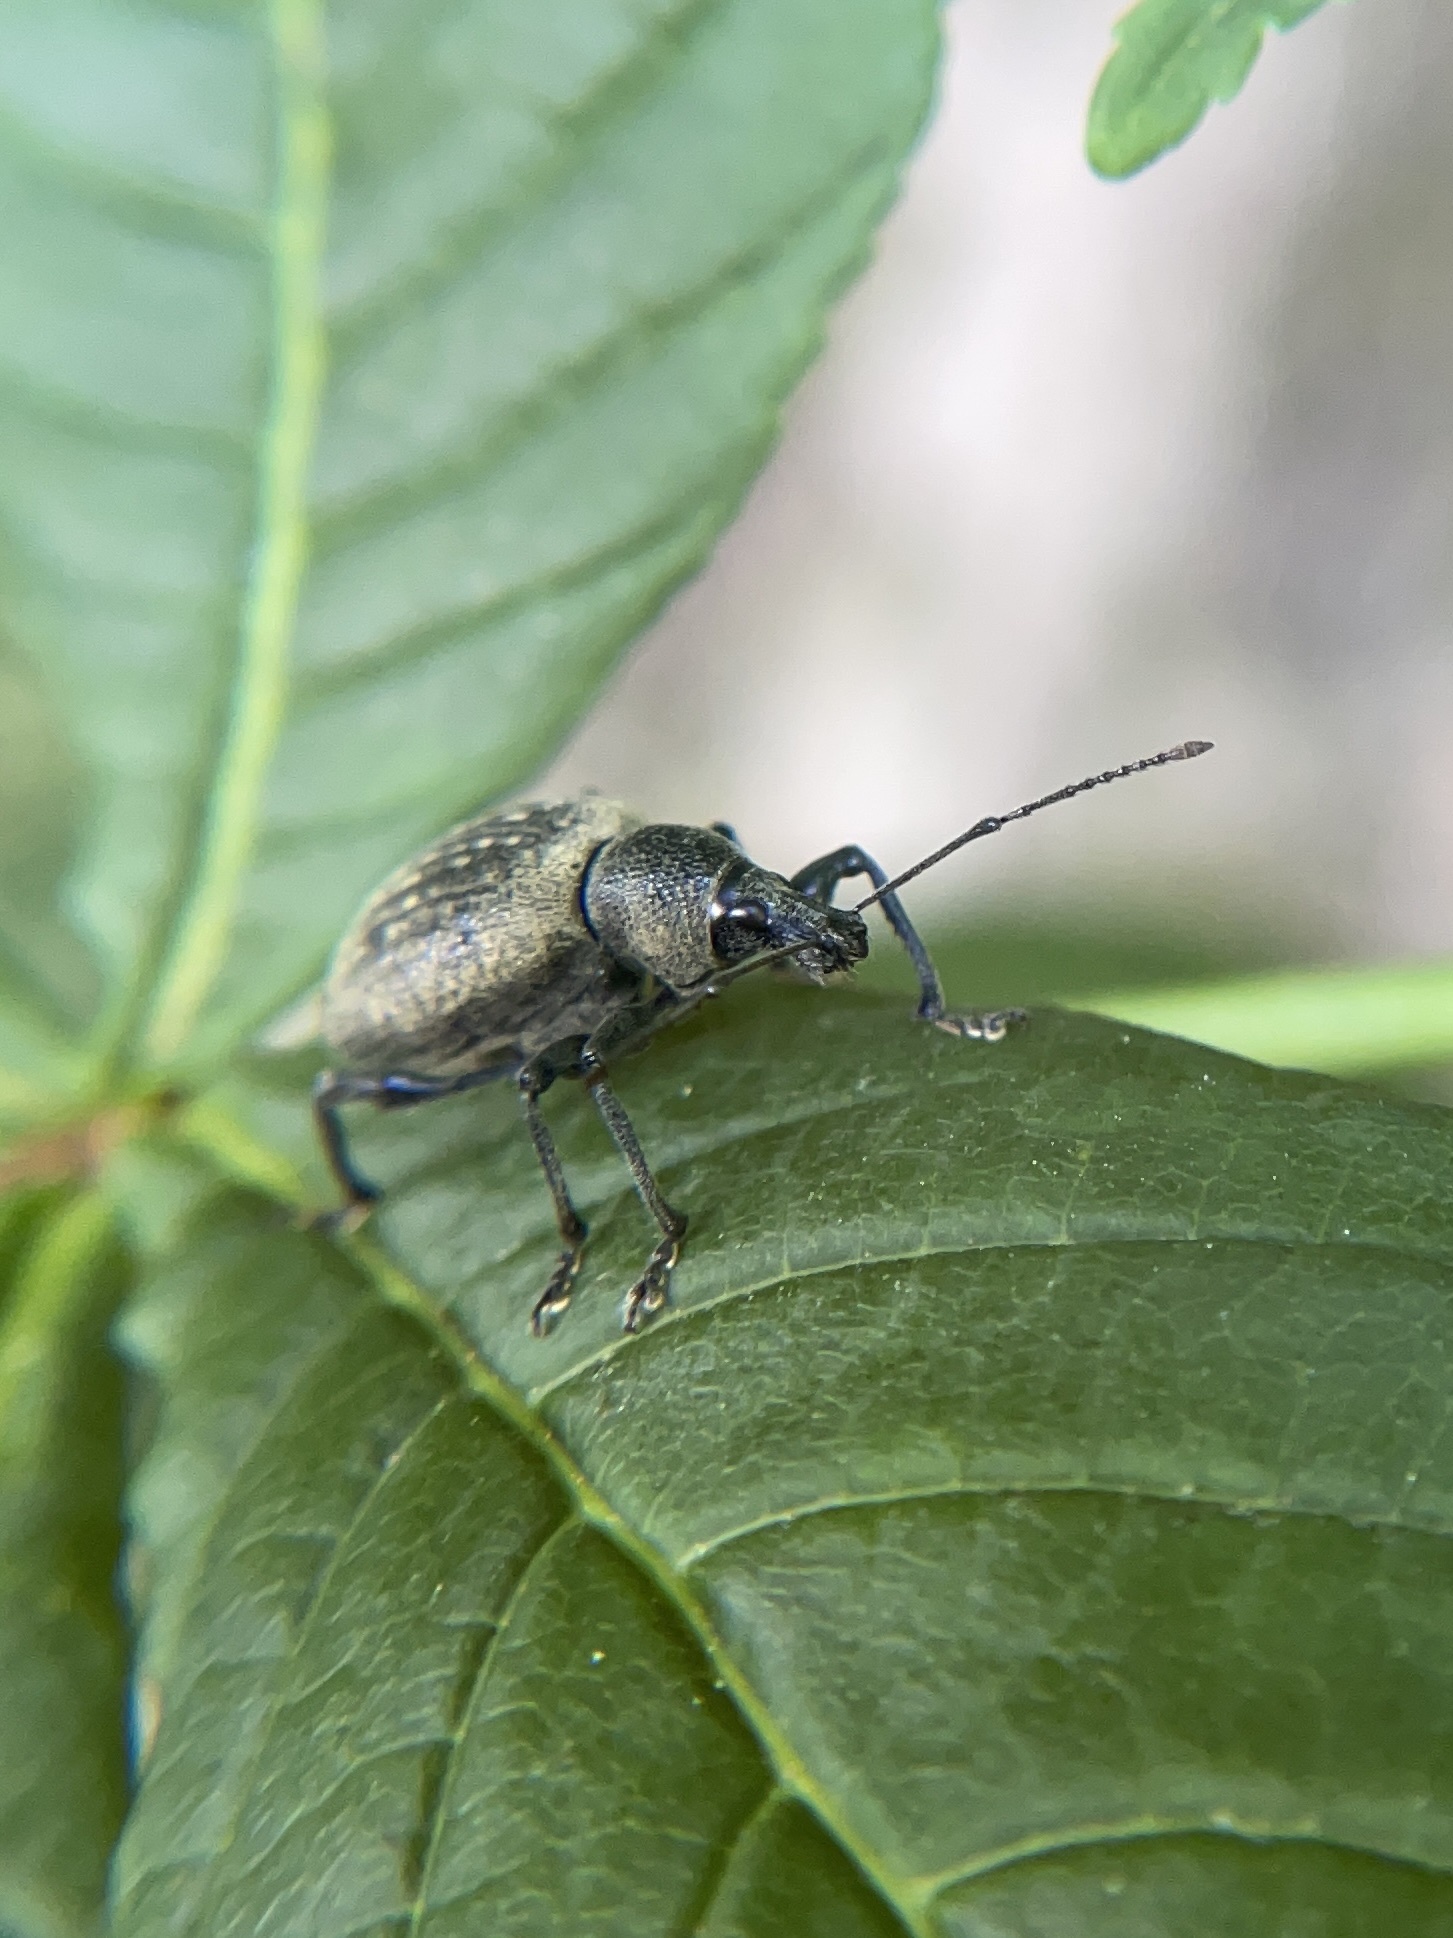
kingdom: Animalia
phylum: Arthropoda
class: Insecta
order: Coleoptera
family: Curculionidae
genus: Otiorhynchus
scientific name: Otiorhynchus pseudonothus
